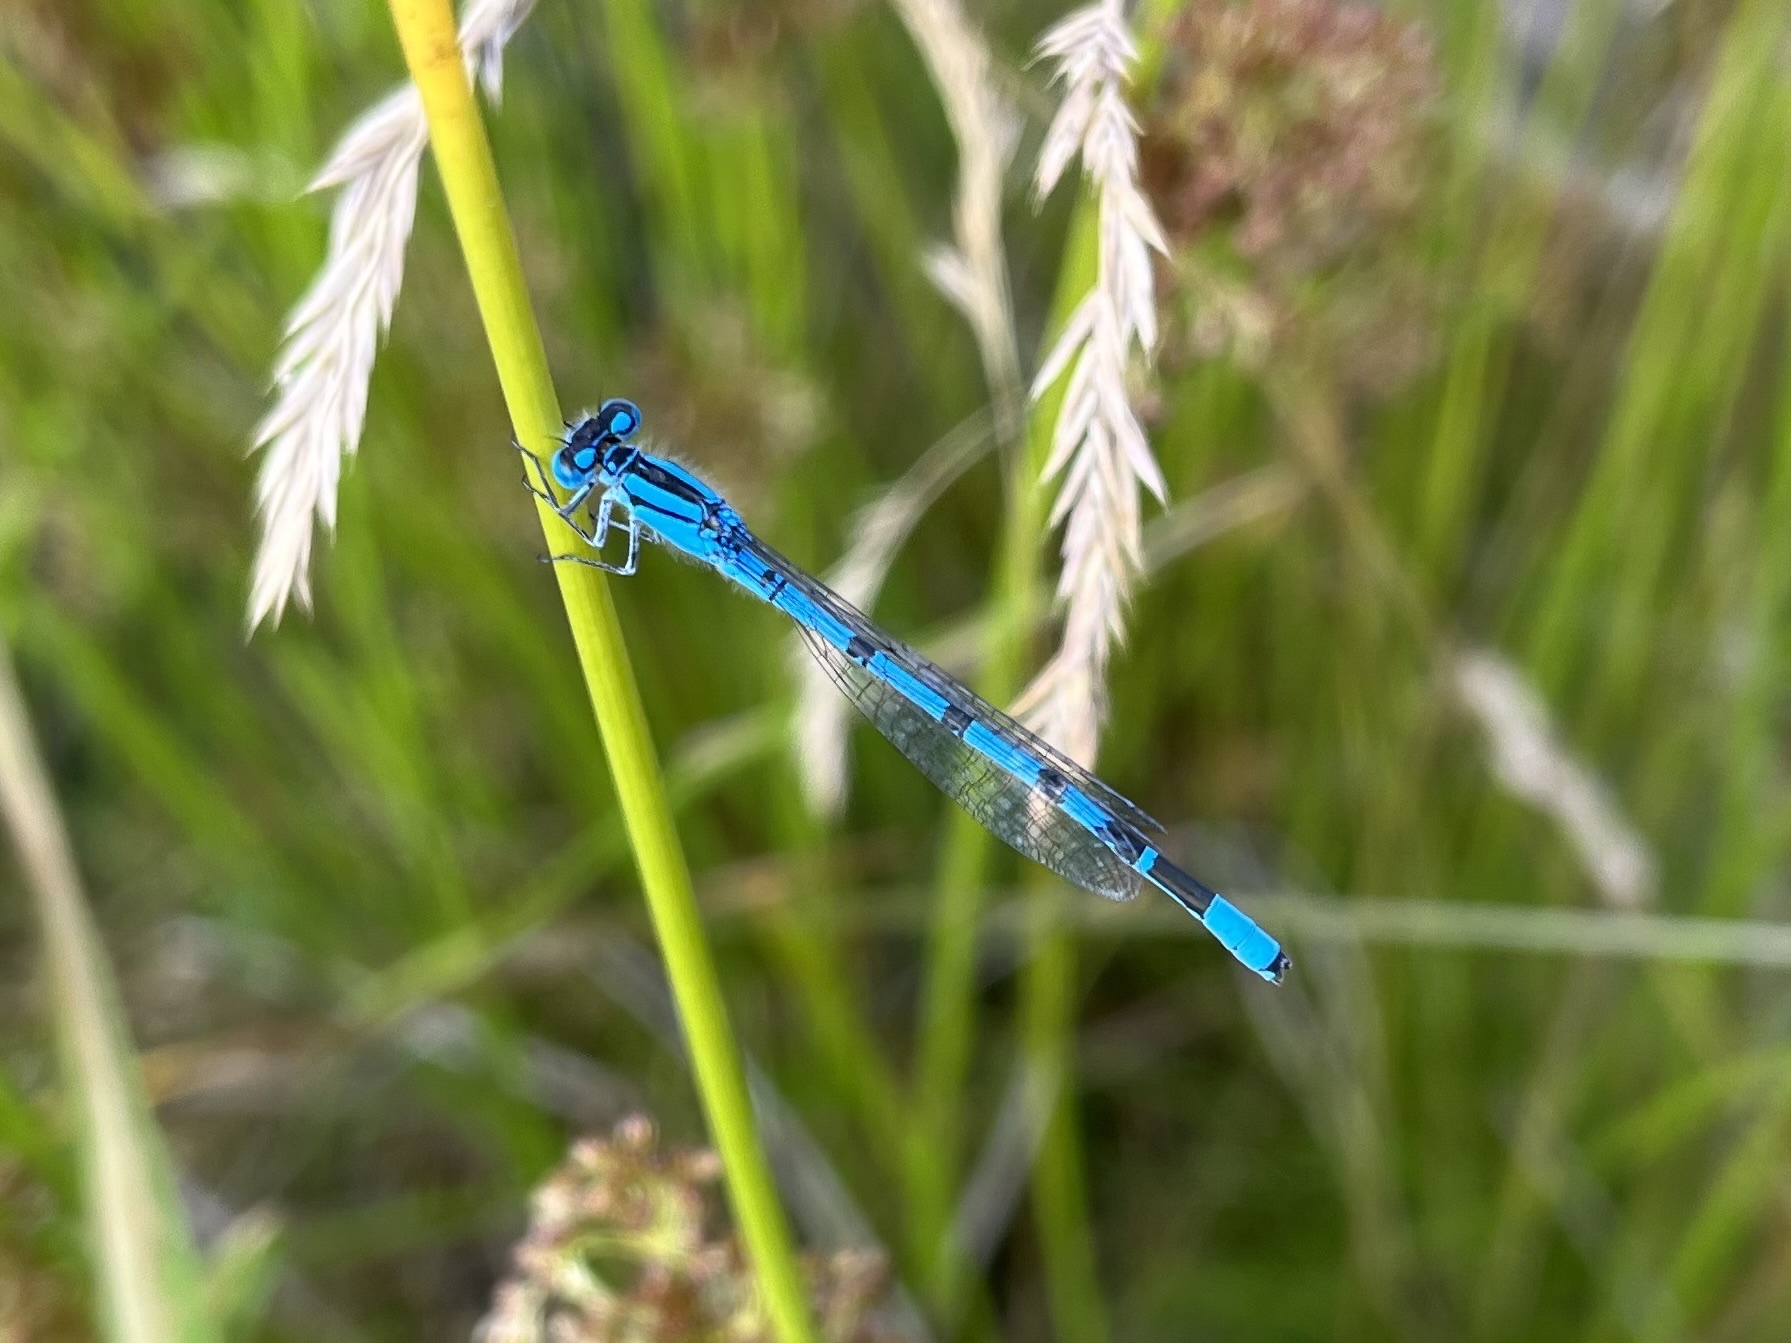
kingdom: Animalia
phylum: Arthropoda
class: Insecta
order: Odonata
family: Coenagrionidae
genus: Enallagma
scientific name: Enallagma cyathigerum
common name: Common blue damselfly
